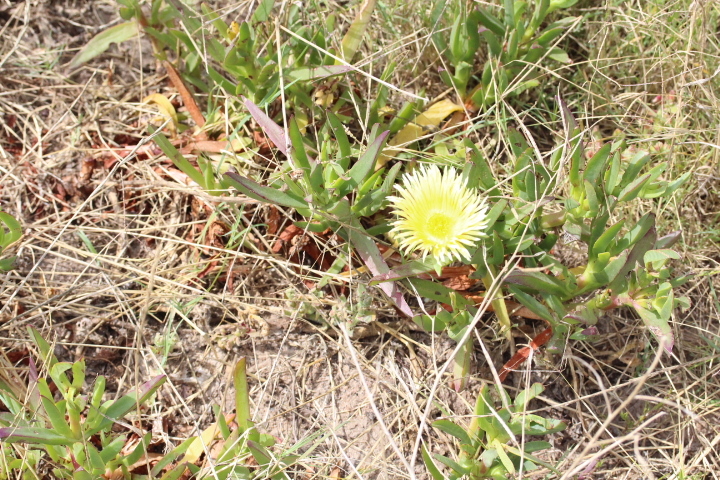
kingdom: Plantae
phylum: Tracheophyta
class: Magnoliopsida
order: Caryophyllales
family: Aizoaceae
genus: Carpobrotus
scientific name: Carpobrotus edulis
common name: Hottentot-fig
